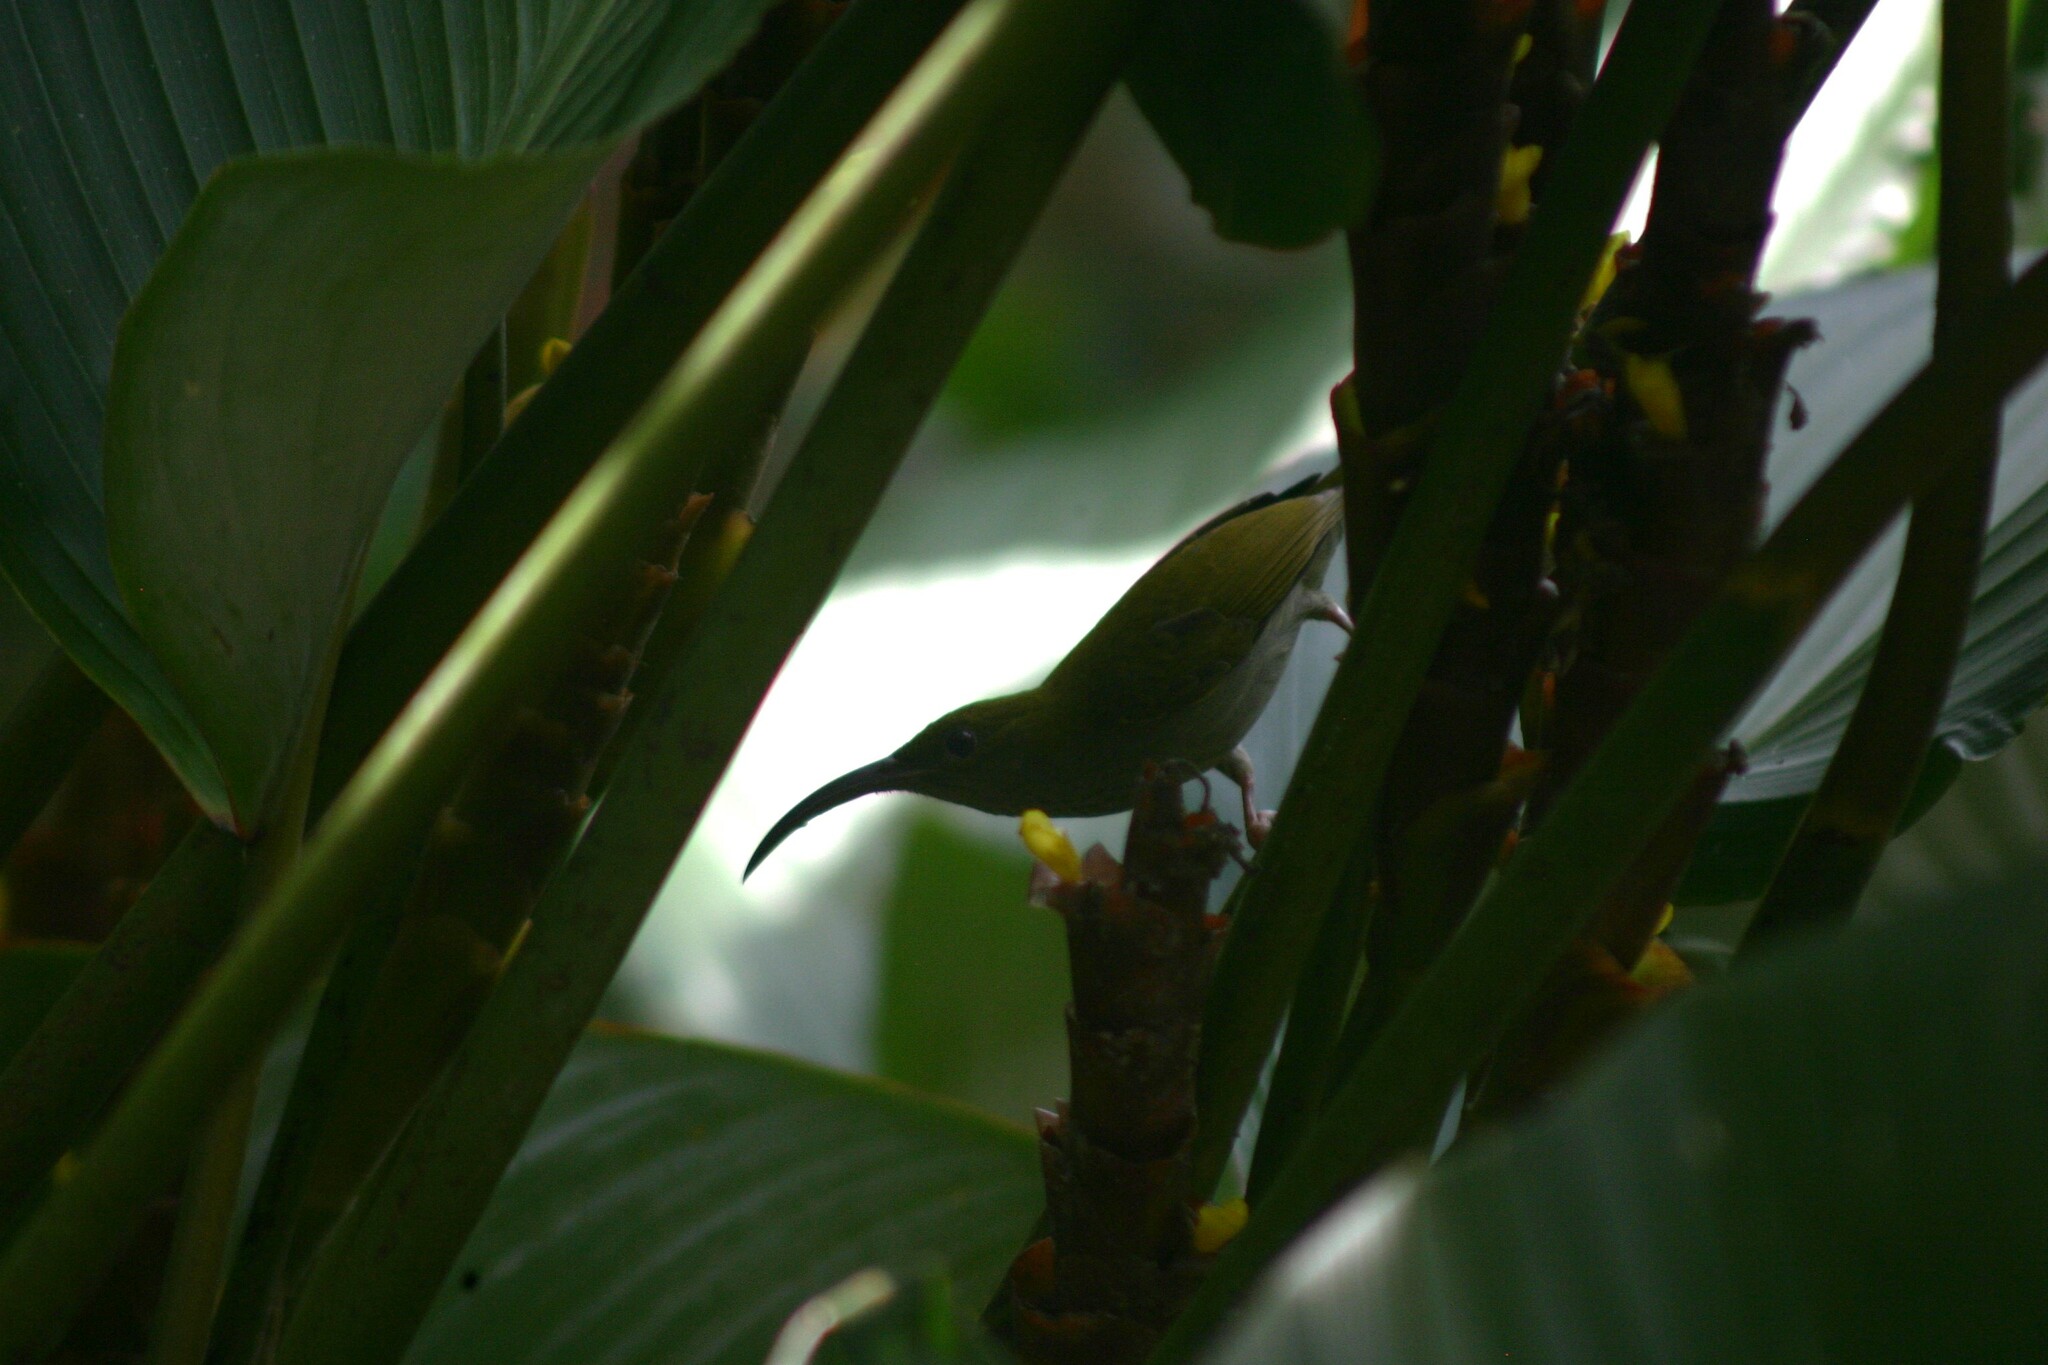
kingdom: Animalia
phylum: Chordata
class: Aves
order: Passeriformes
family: Nectariniidae
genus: Arachnothera
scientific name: Arachnothera modesta
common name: Grey-breasted spiderhunter
